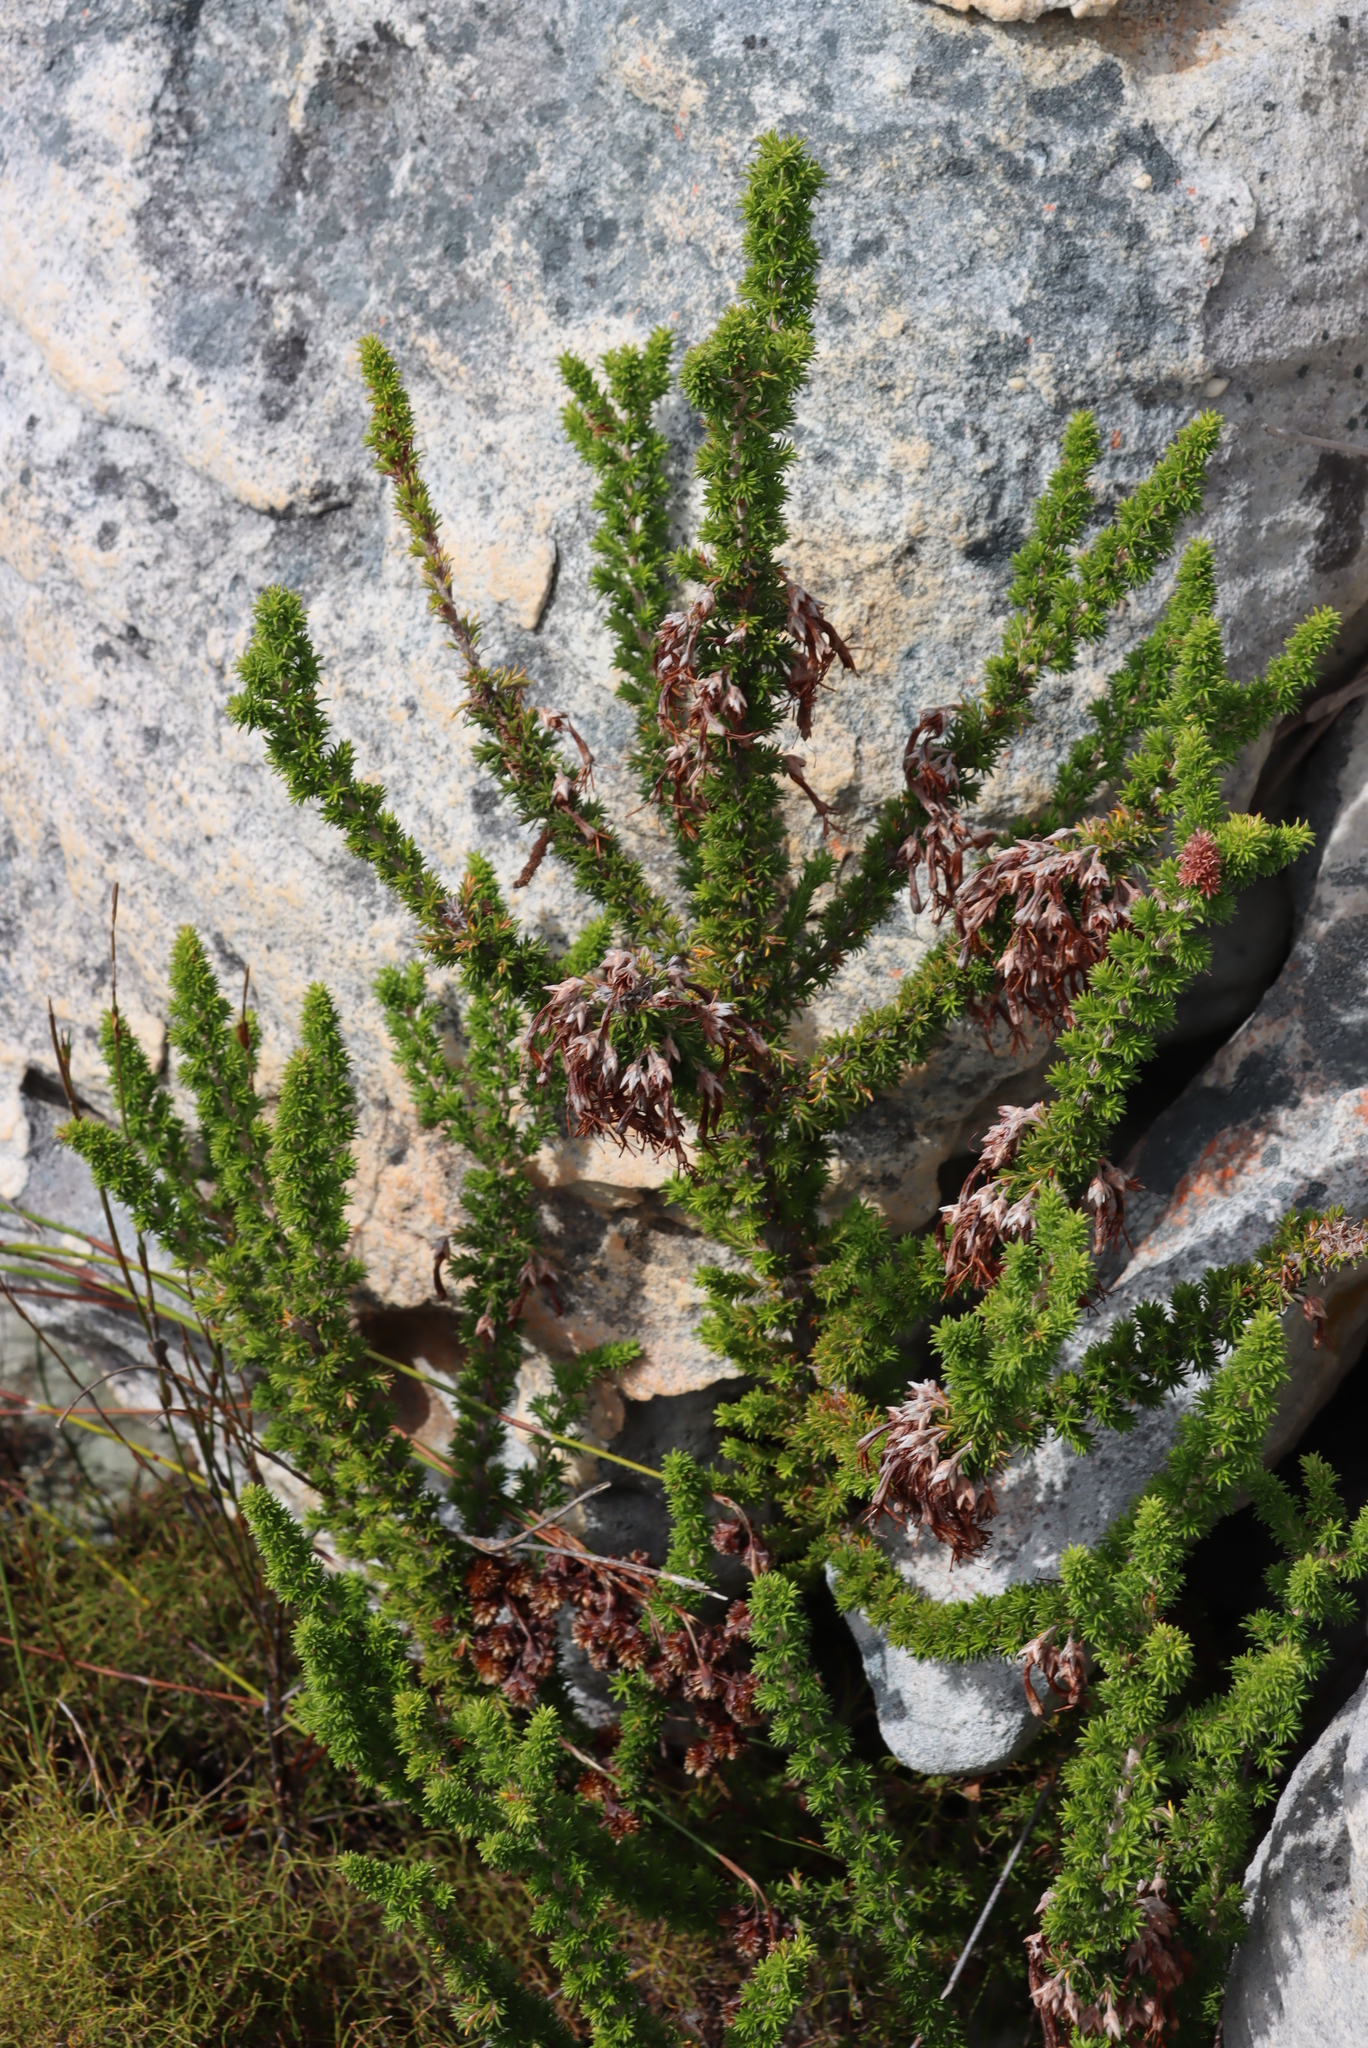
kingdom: Plantae
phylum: Tracheophyta
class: Magnoliopsida
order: Ericales
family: Ericaceae
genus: Erica
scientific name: Erica coccinea
